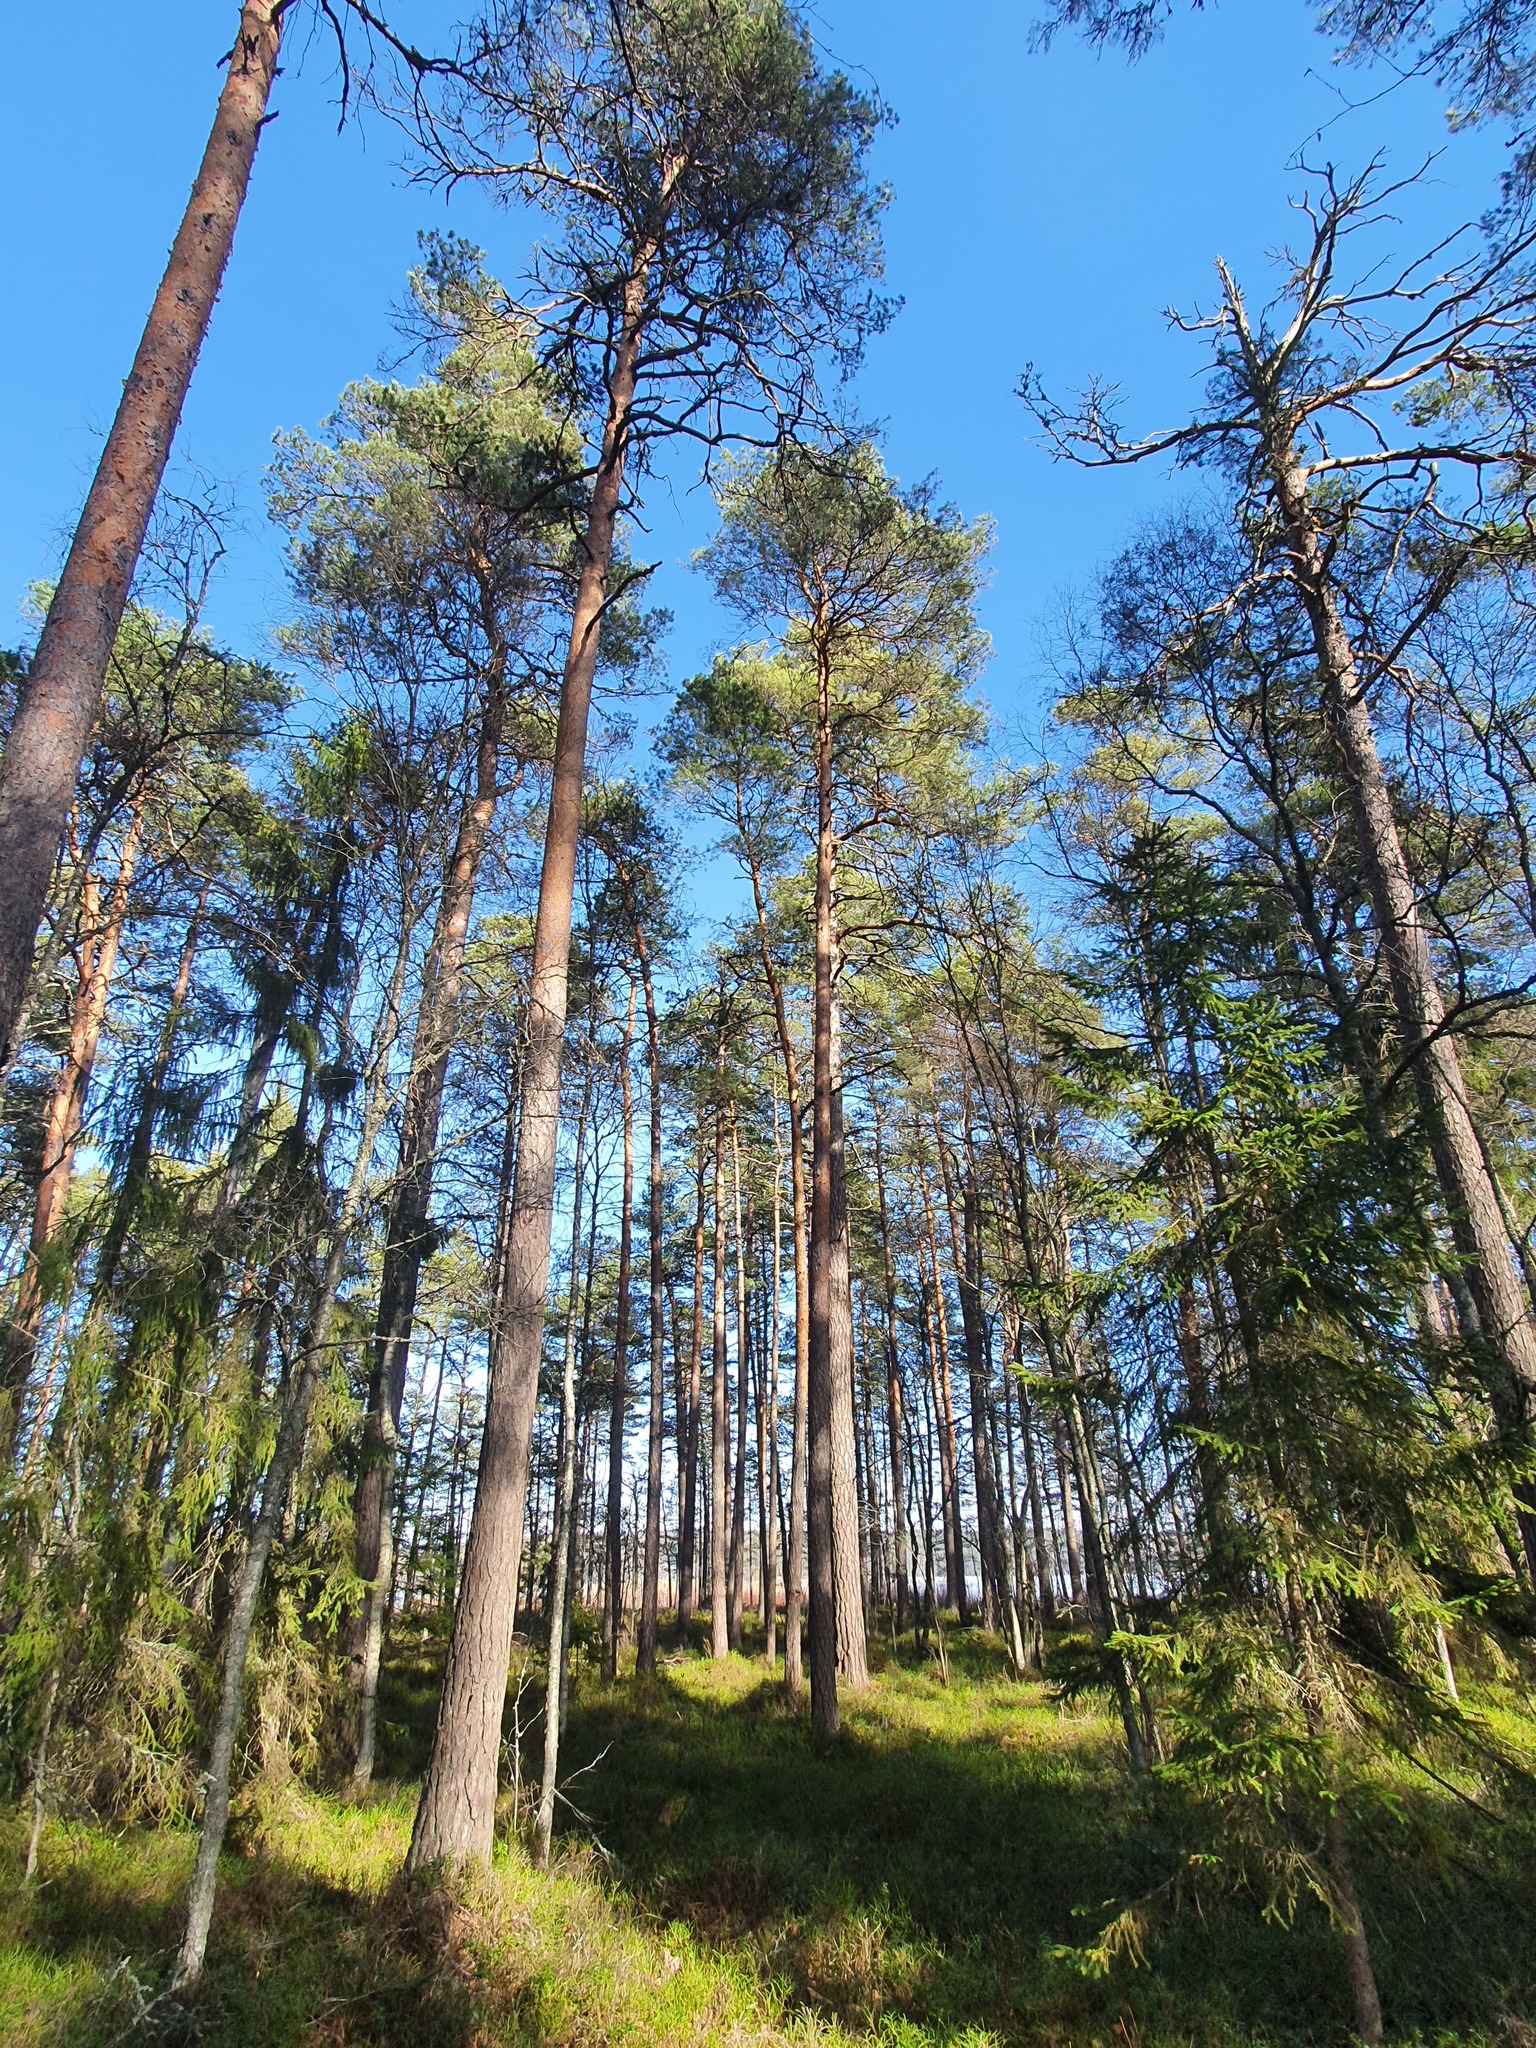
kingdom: Plantae
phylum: Tracheophyta
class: Pinopsida
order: Pinales
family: Pinaceae
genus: Pinus
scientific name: Pinus sylvestris
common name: Scots pine
